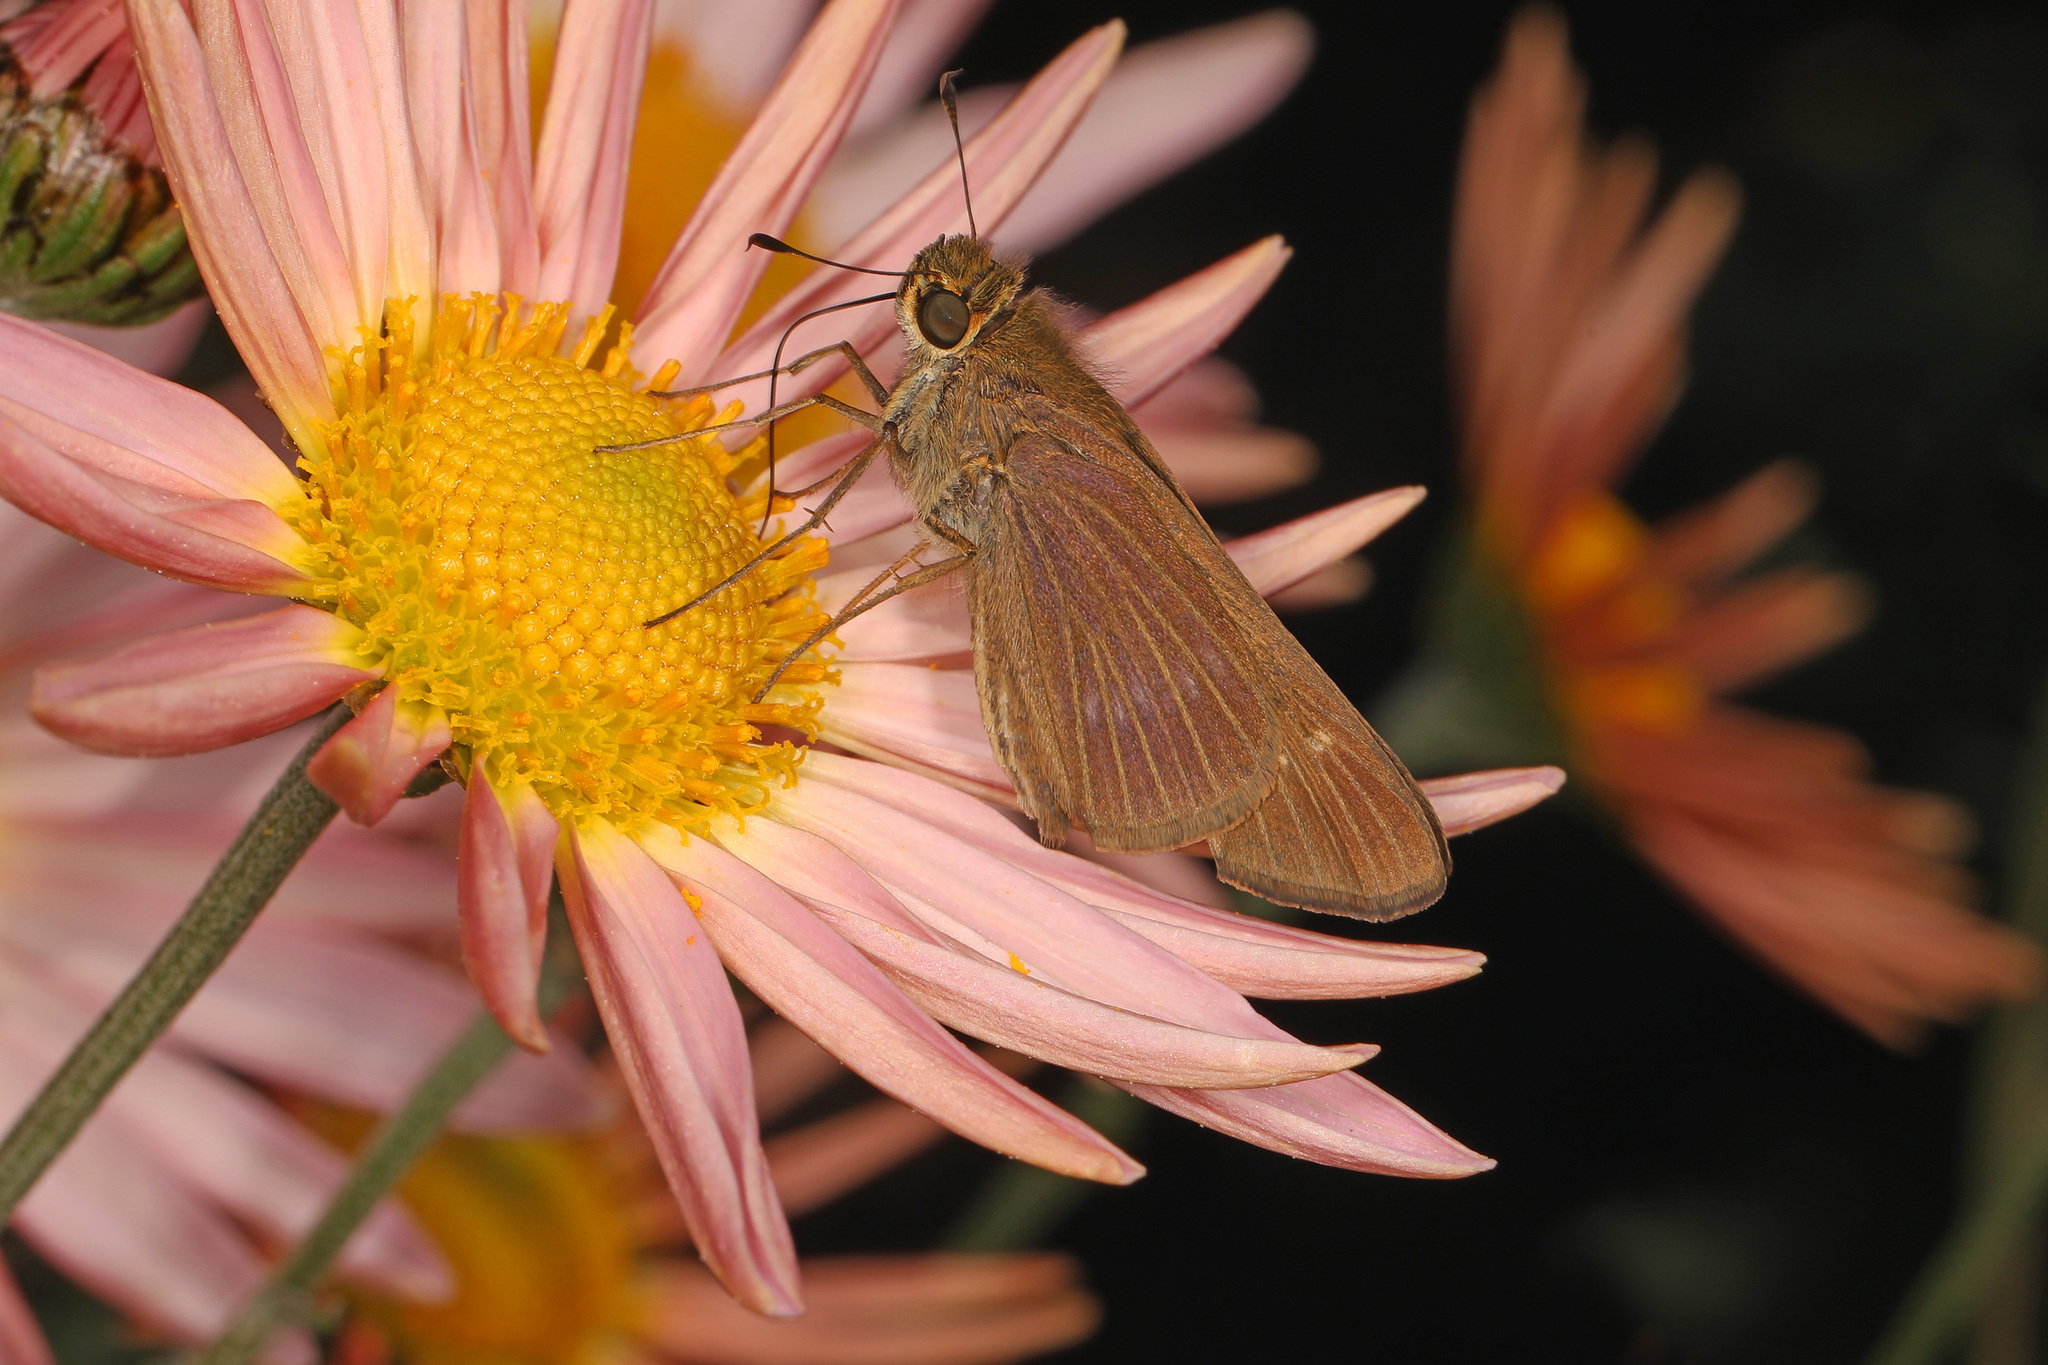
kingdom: Animalia
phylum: Arthropoda
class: Insecta
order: Lepidoptera
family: Hesperiidae
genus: Panoquina
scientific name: Panoquina ocola
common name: Ocola skipper
